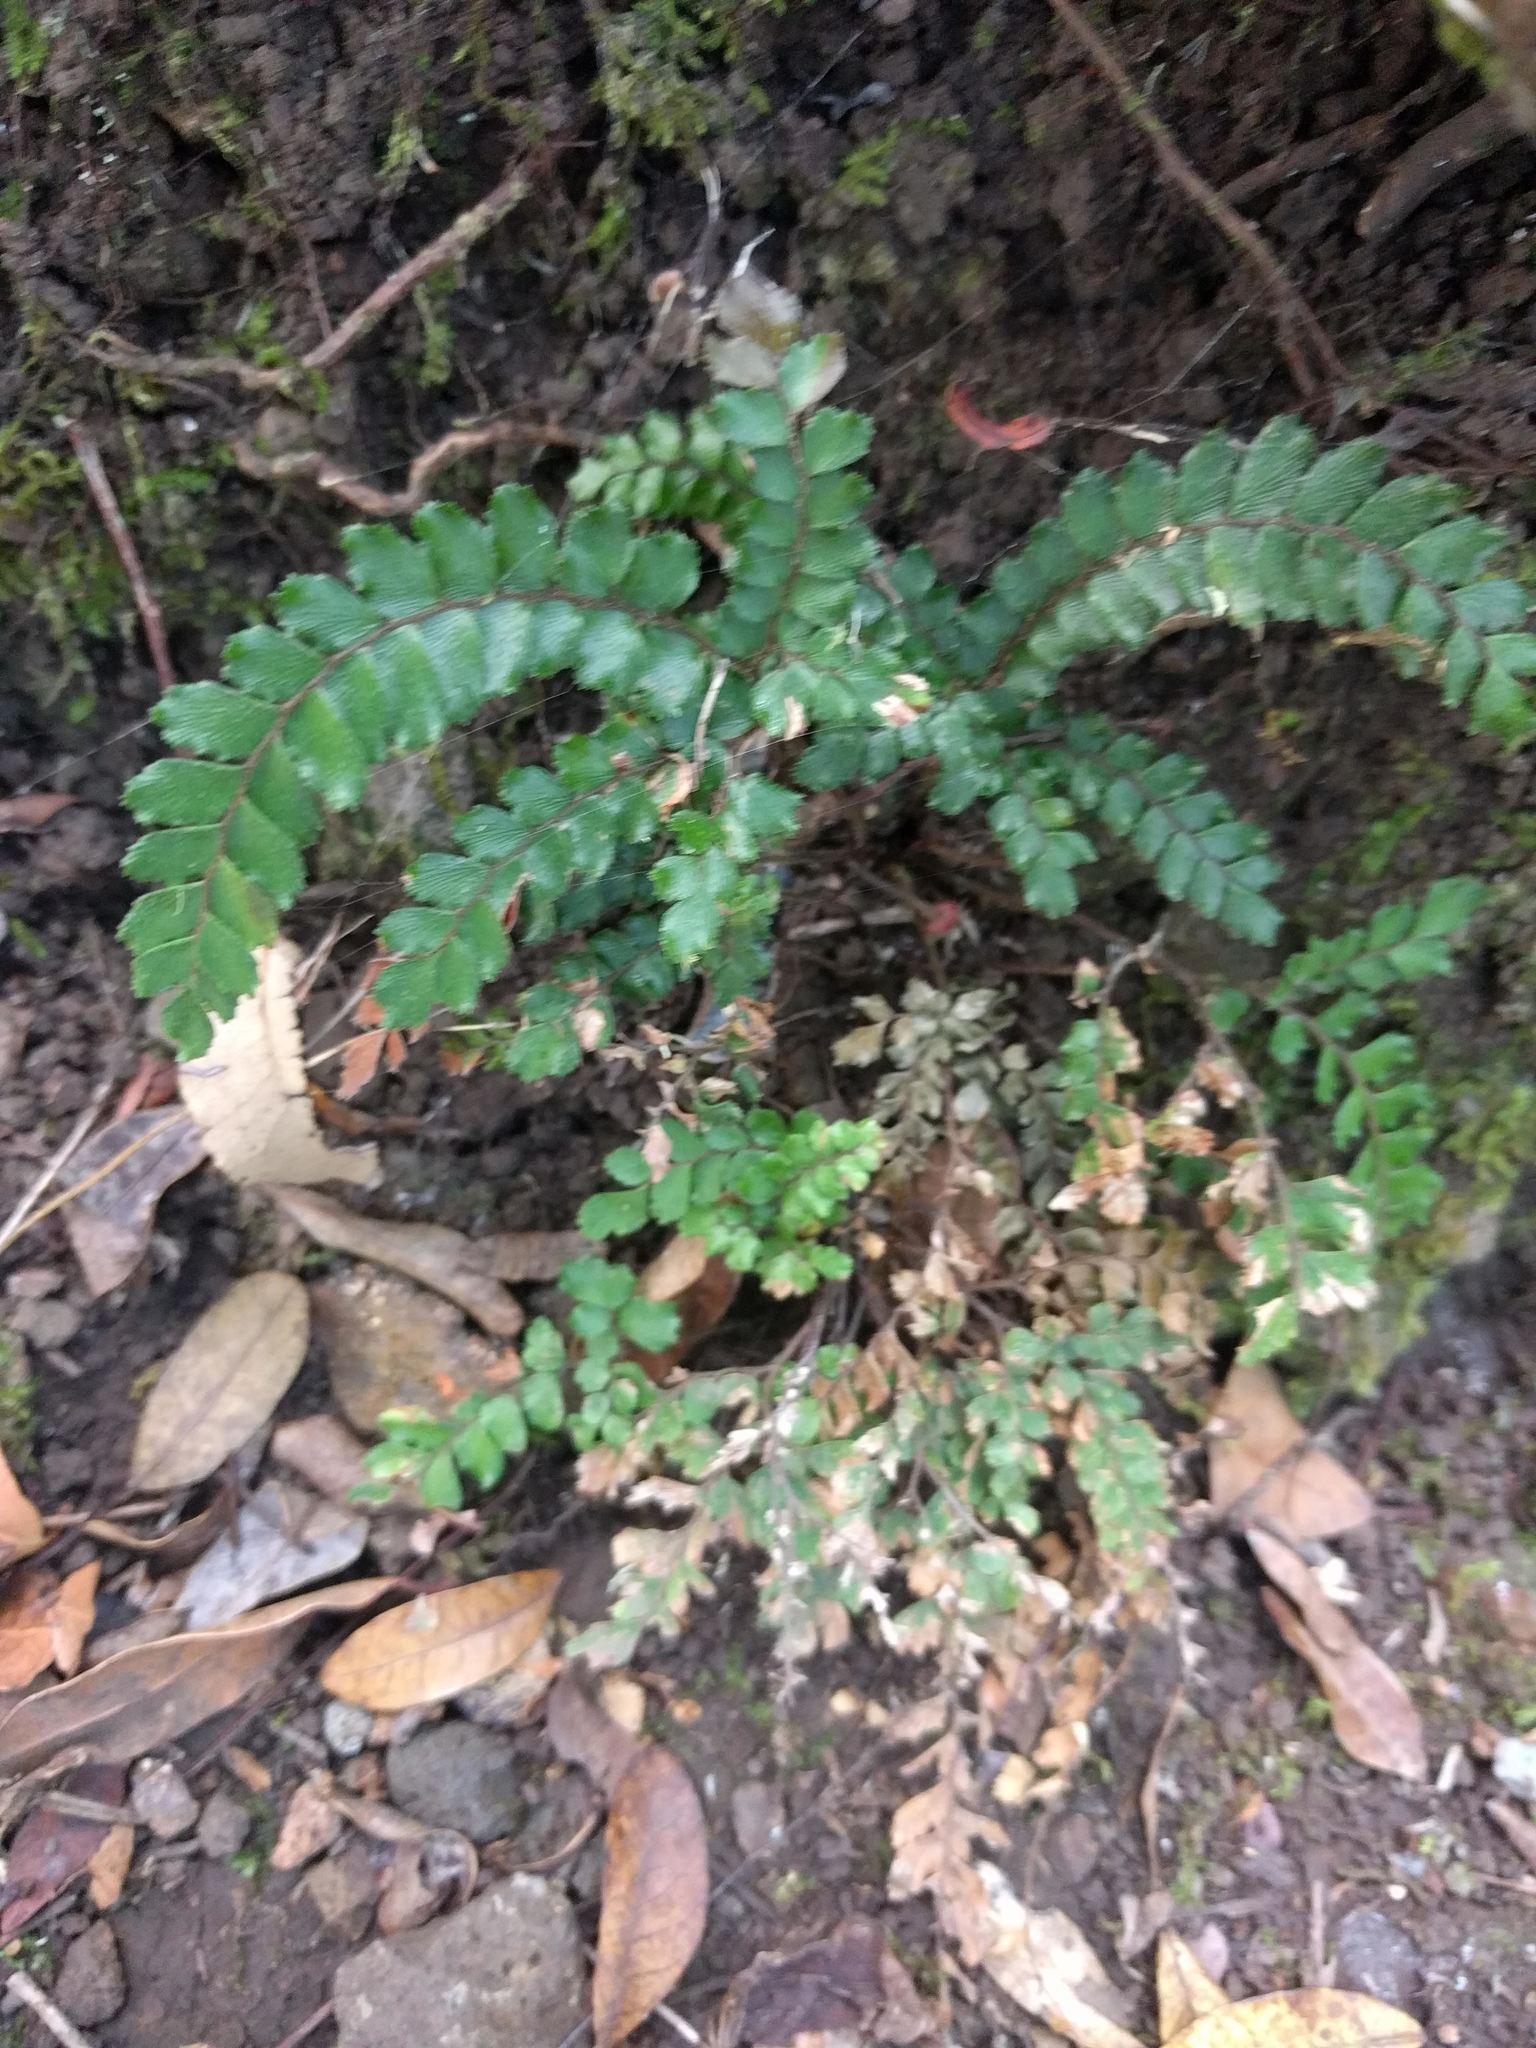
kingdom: Plantae
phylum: Tracheophyta
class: Polypodiopsida
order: Polypodiales
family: Pteridaceae
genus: Adiantum
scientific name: Adiantum hispidulum
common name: Rough maidenhair
